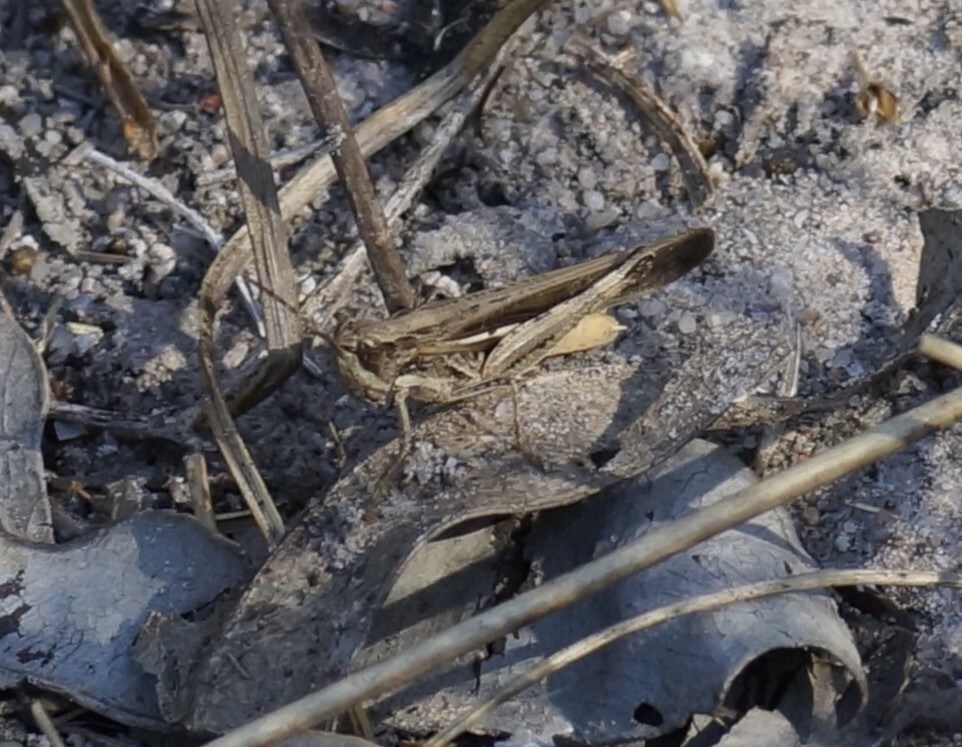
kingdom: Animalia
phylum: Arthropoda
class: Insecta
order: Orthoptera
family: Acrididae
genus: Aiolopus
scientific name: Aiolopus thalassinus
